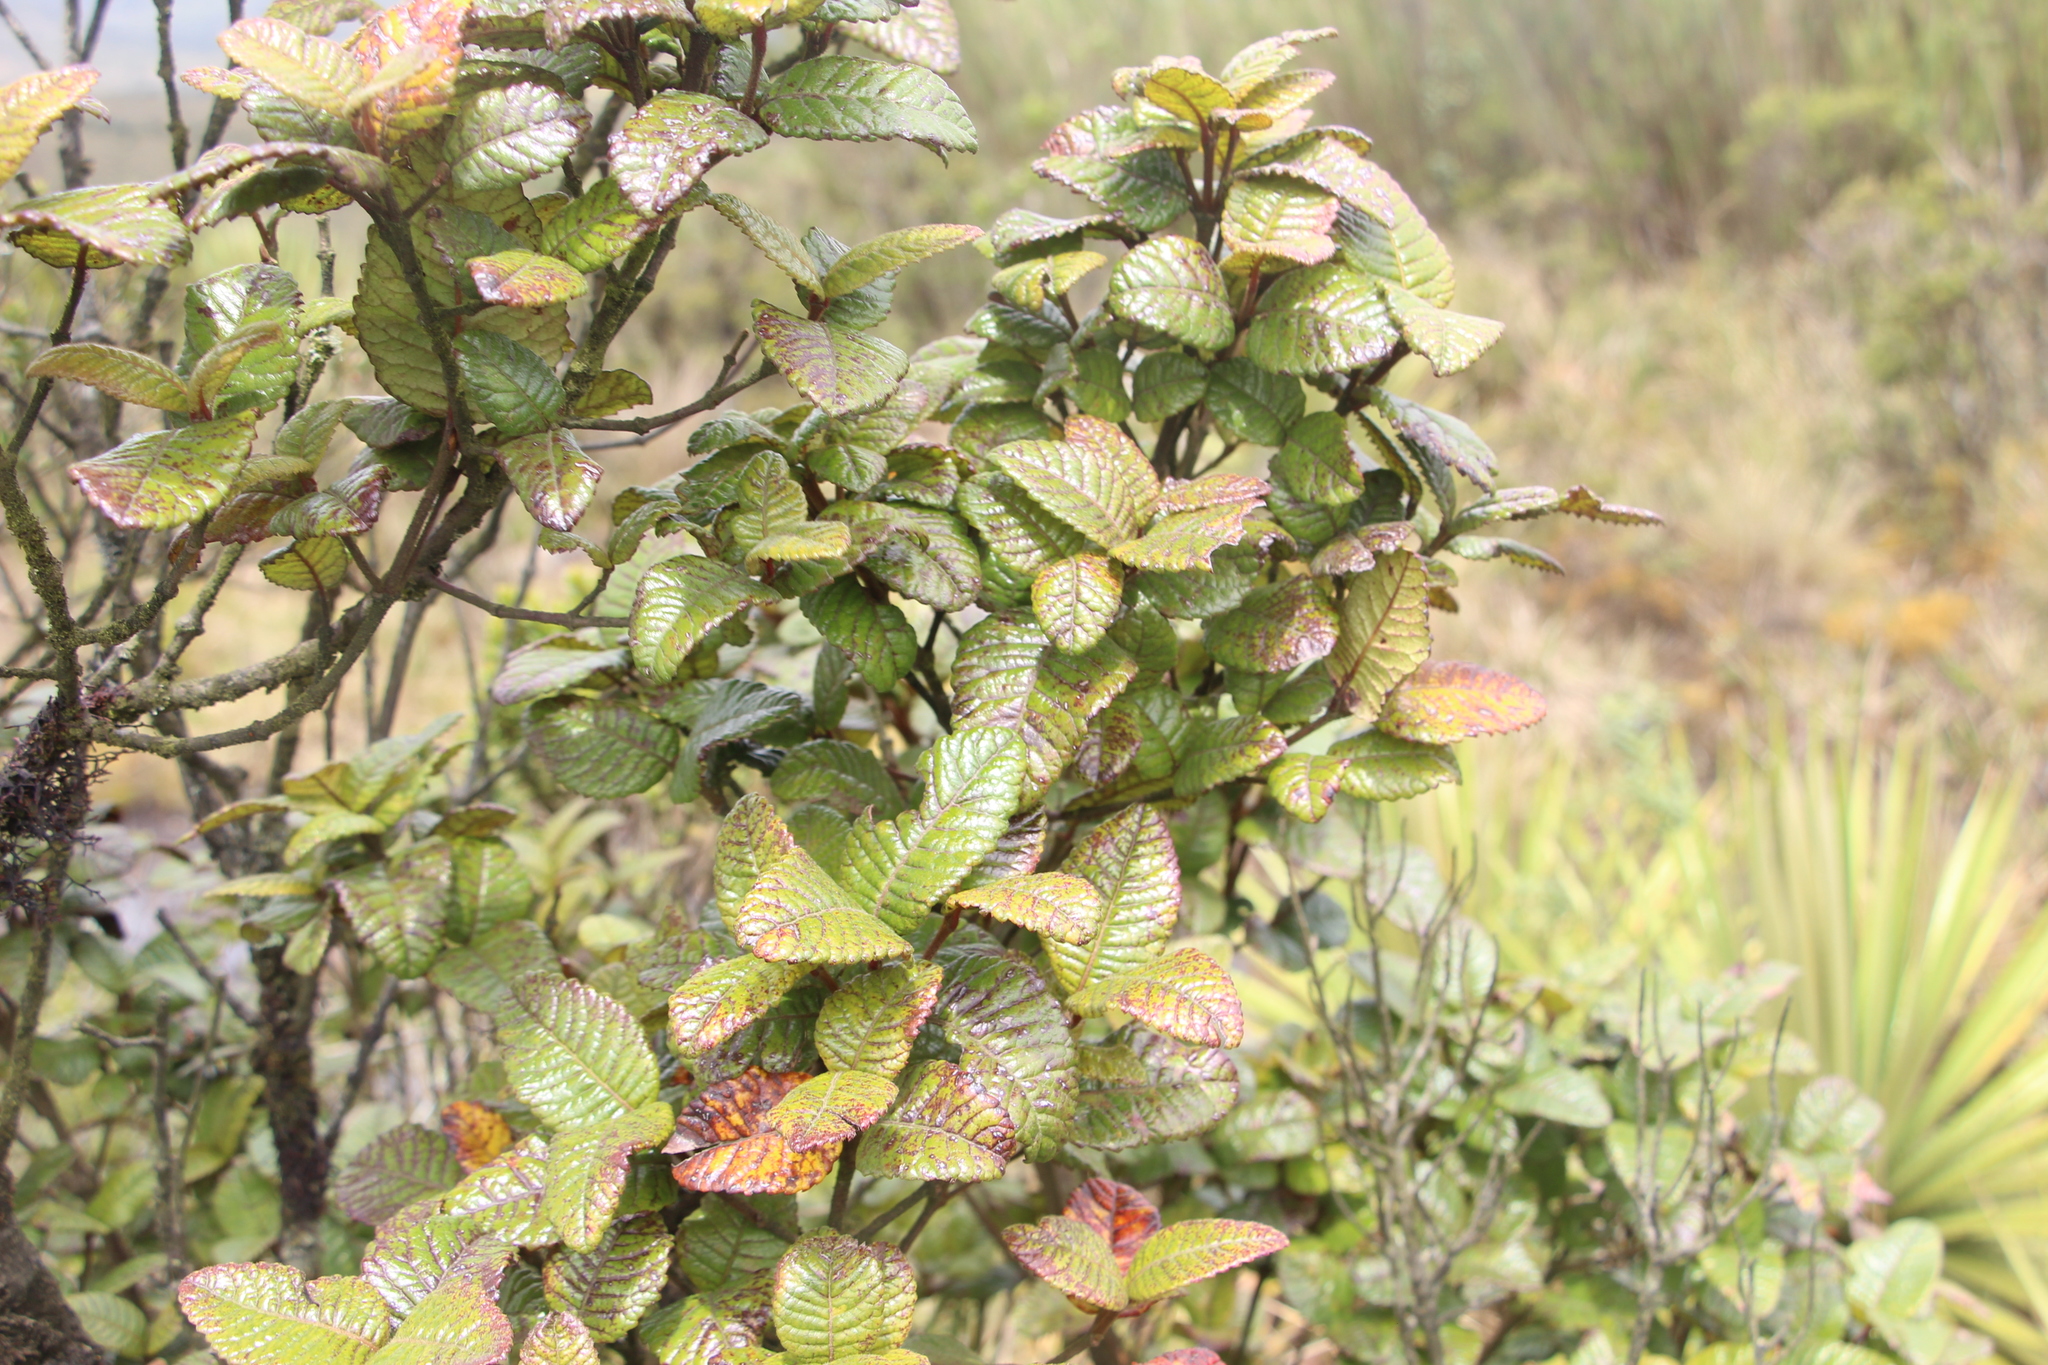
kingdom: Plantae
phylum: Tracheophyta
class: Magnoliopsida
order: Oxalidales
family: Cunoniaceae
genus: Weinmannia
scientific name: Weinmannia rollottii
